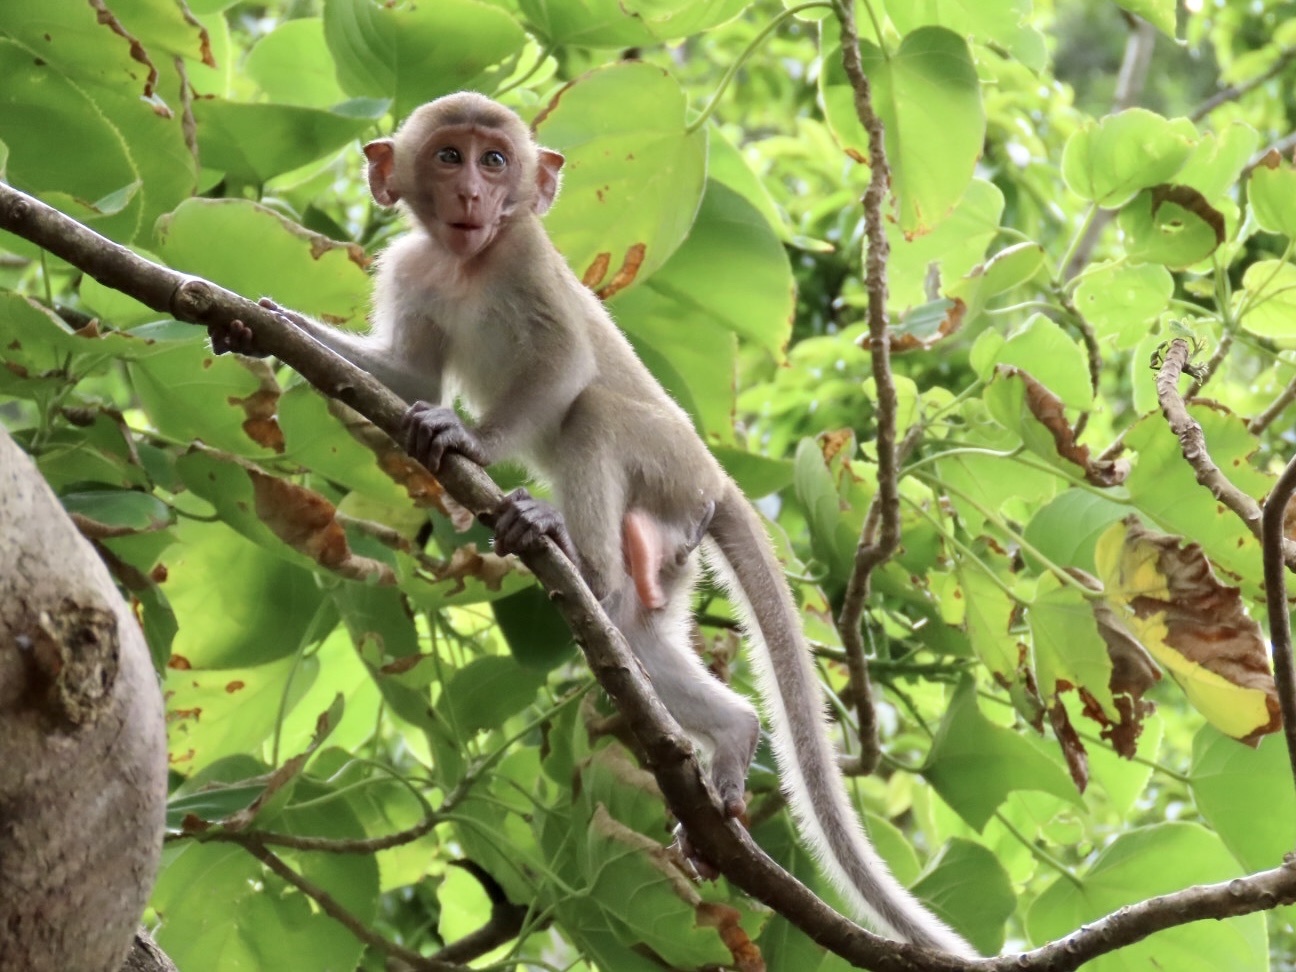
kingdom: Animalia
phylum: Chordata
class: Mammalia
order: Primates
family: Cercopithecidae
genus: Macaca
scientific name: Macaca fascicularis
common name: Crab-eating macaque
